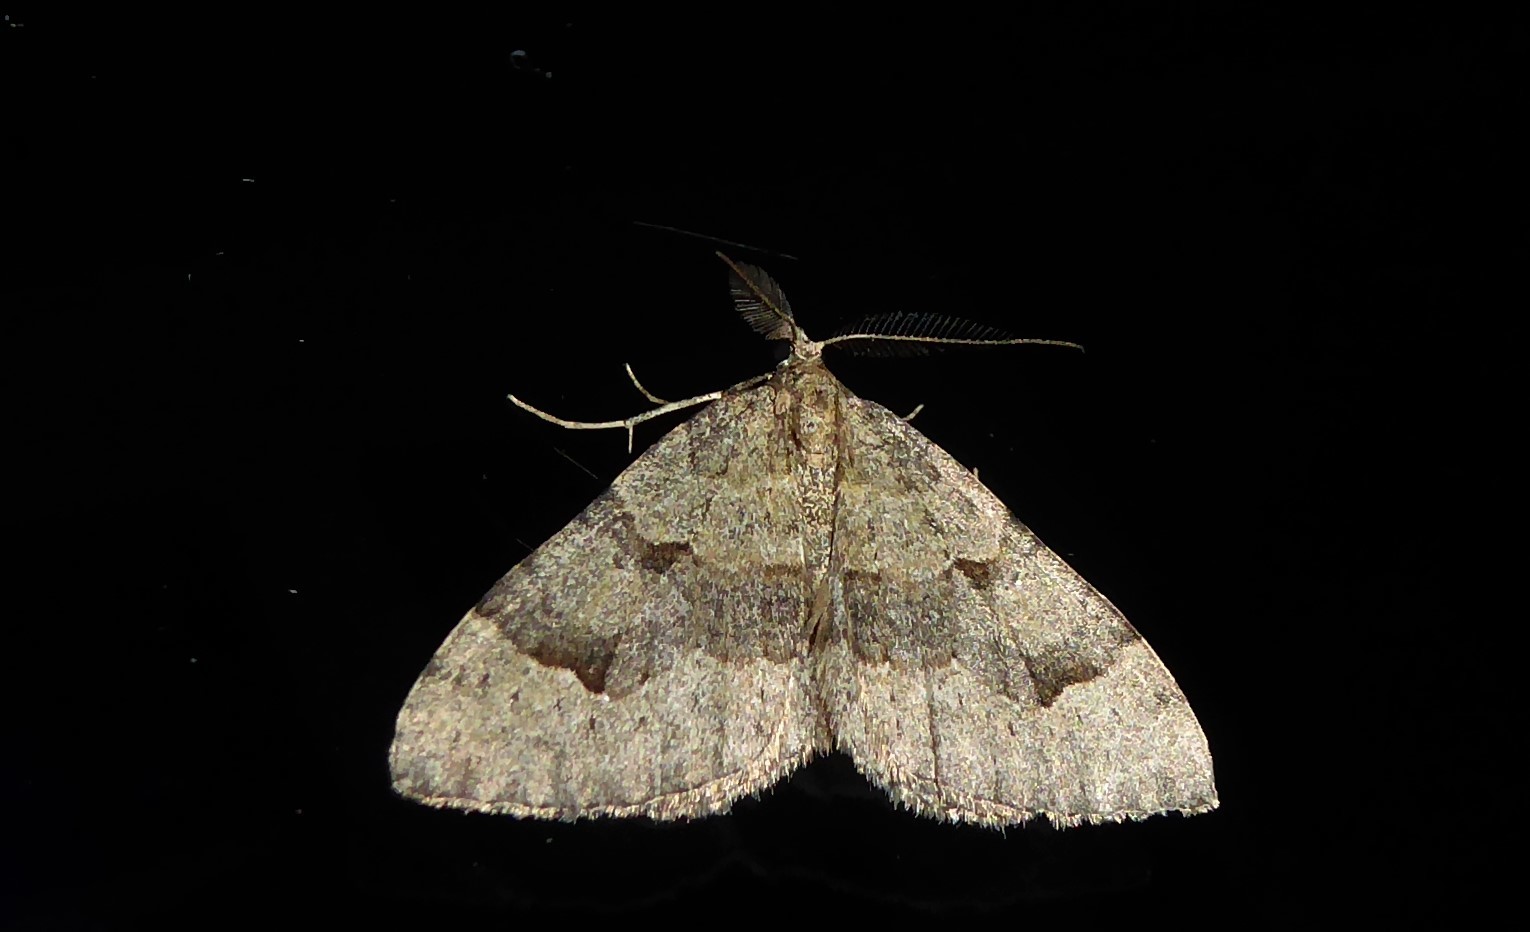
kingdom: Animalia
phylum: Arthropoda
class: Insecta
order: Lepidoptera
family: Geometridae
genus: Epyaxa
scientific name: Epyaxa rosearia
